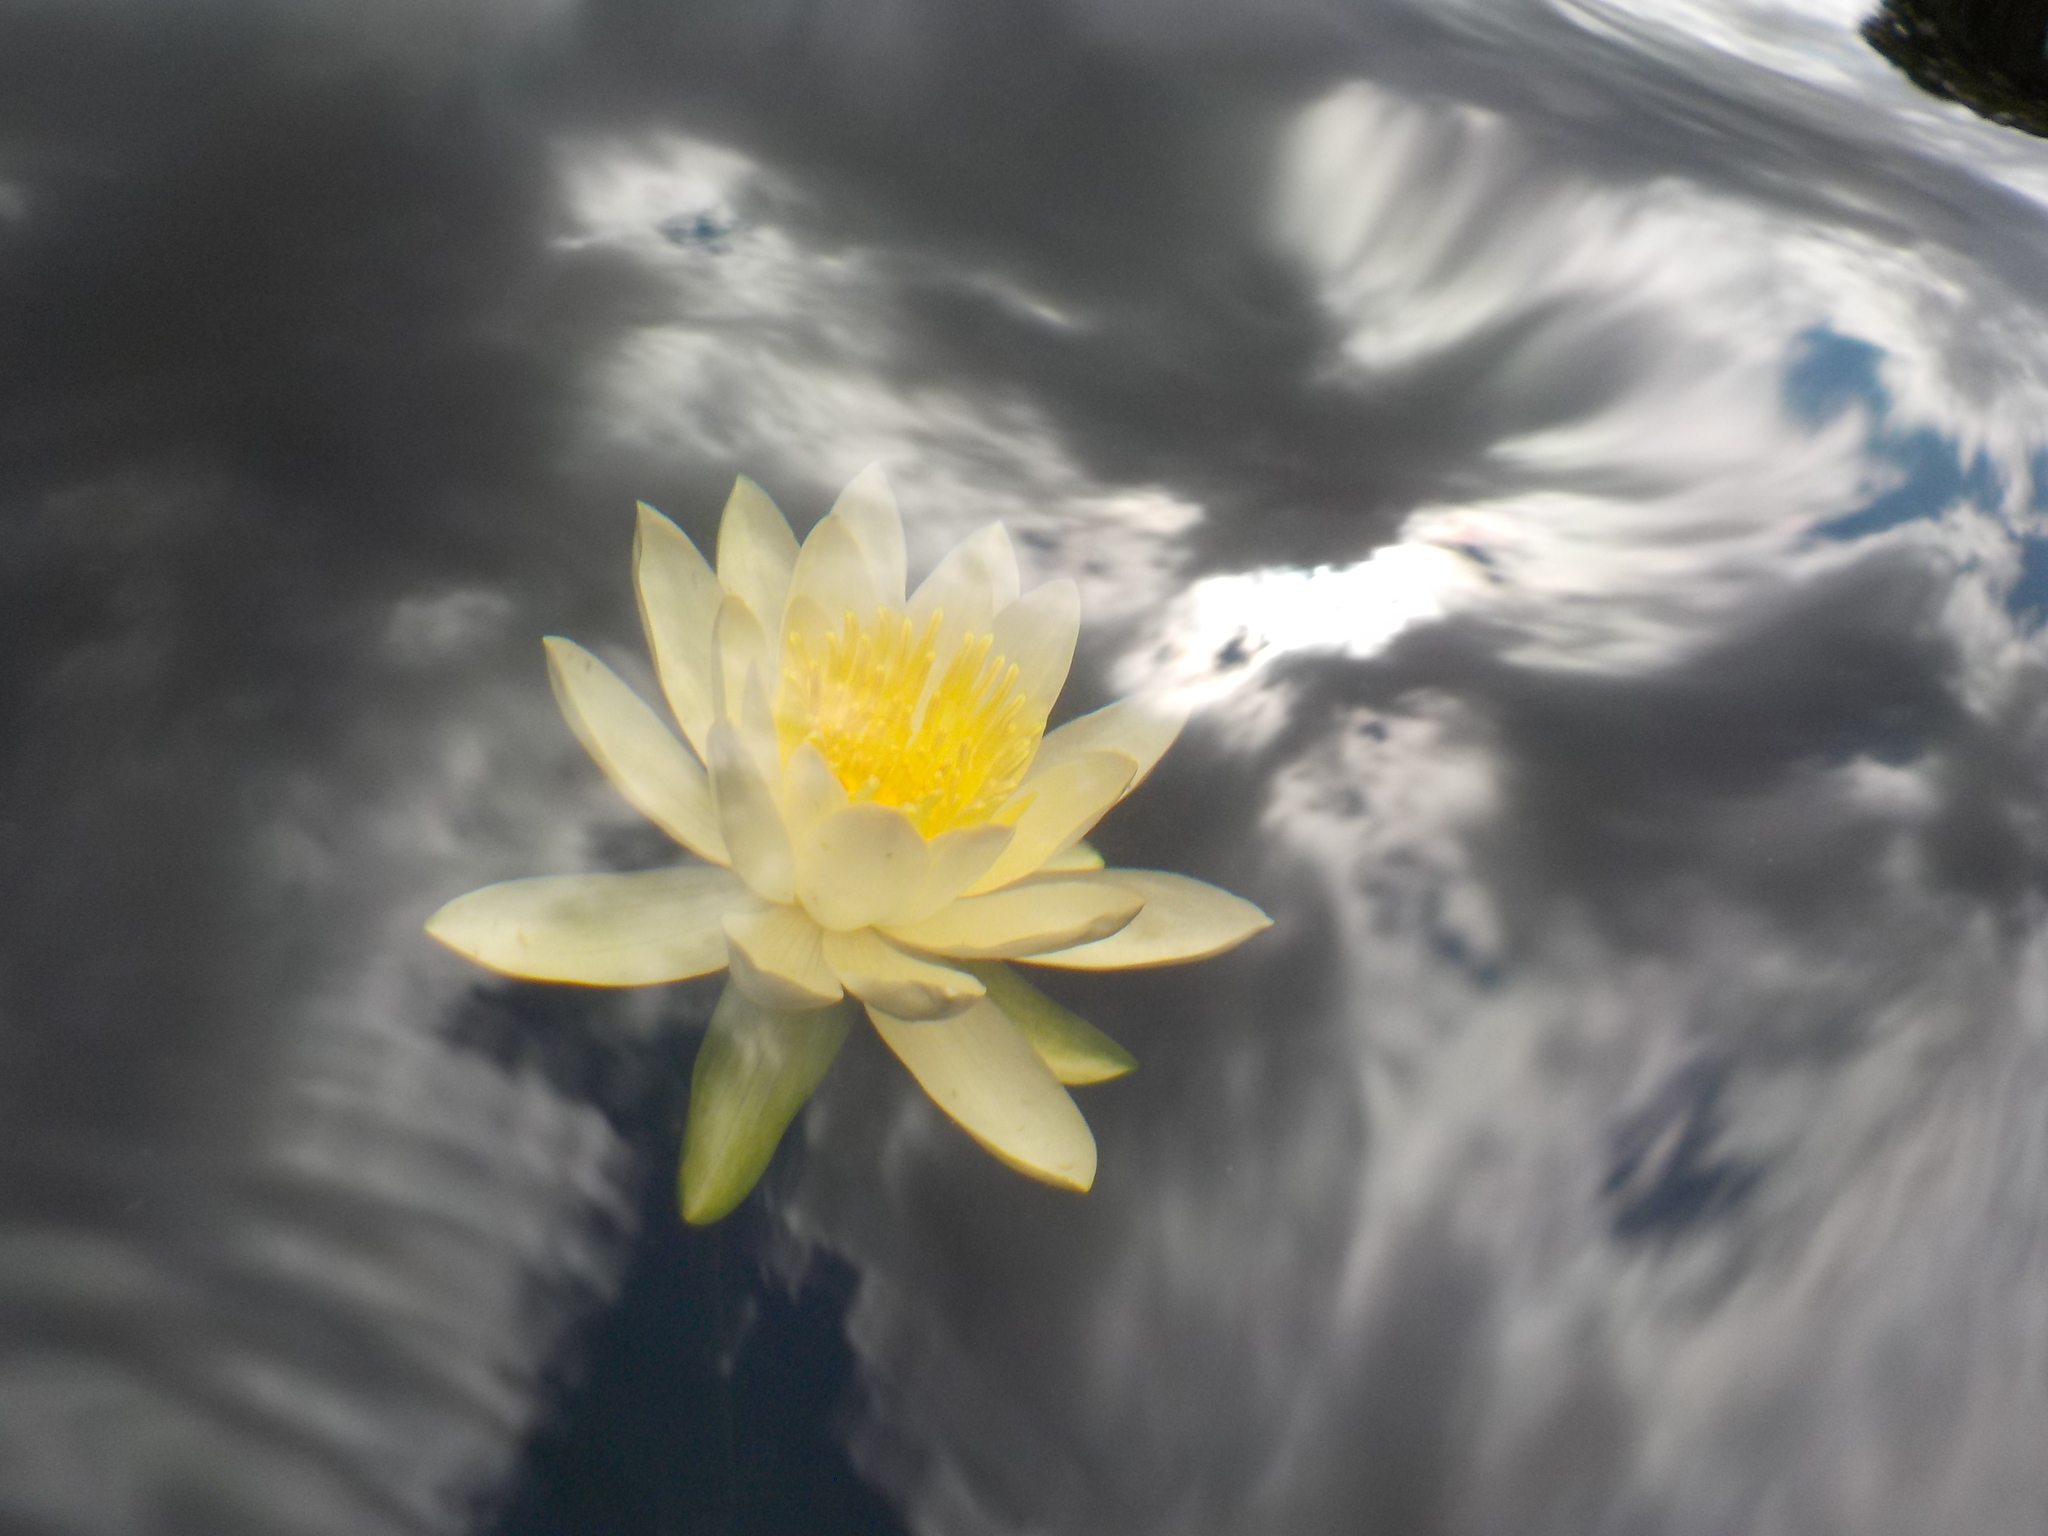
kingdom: Plantae
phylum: Tracheophyta
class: Magnoliopsida
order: Nymphaeales
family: Nymphaeaceae
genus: Nymphaea
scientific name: Nymphaea odorata
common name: Fragrant water-lily
